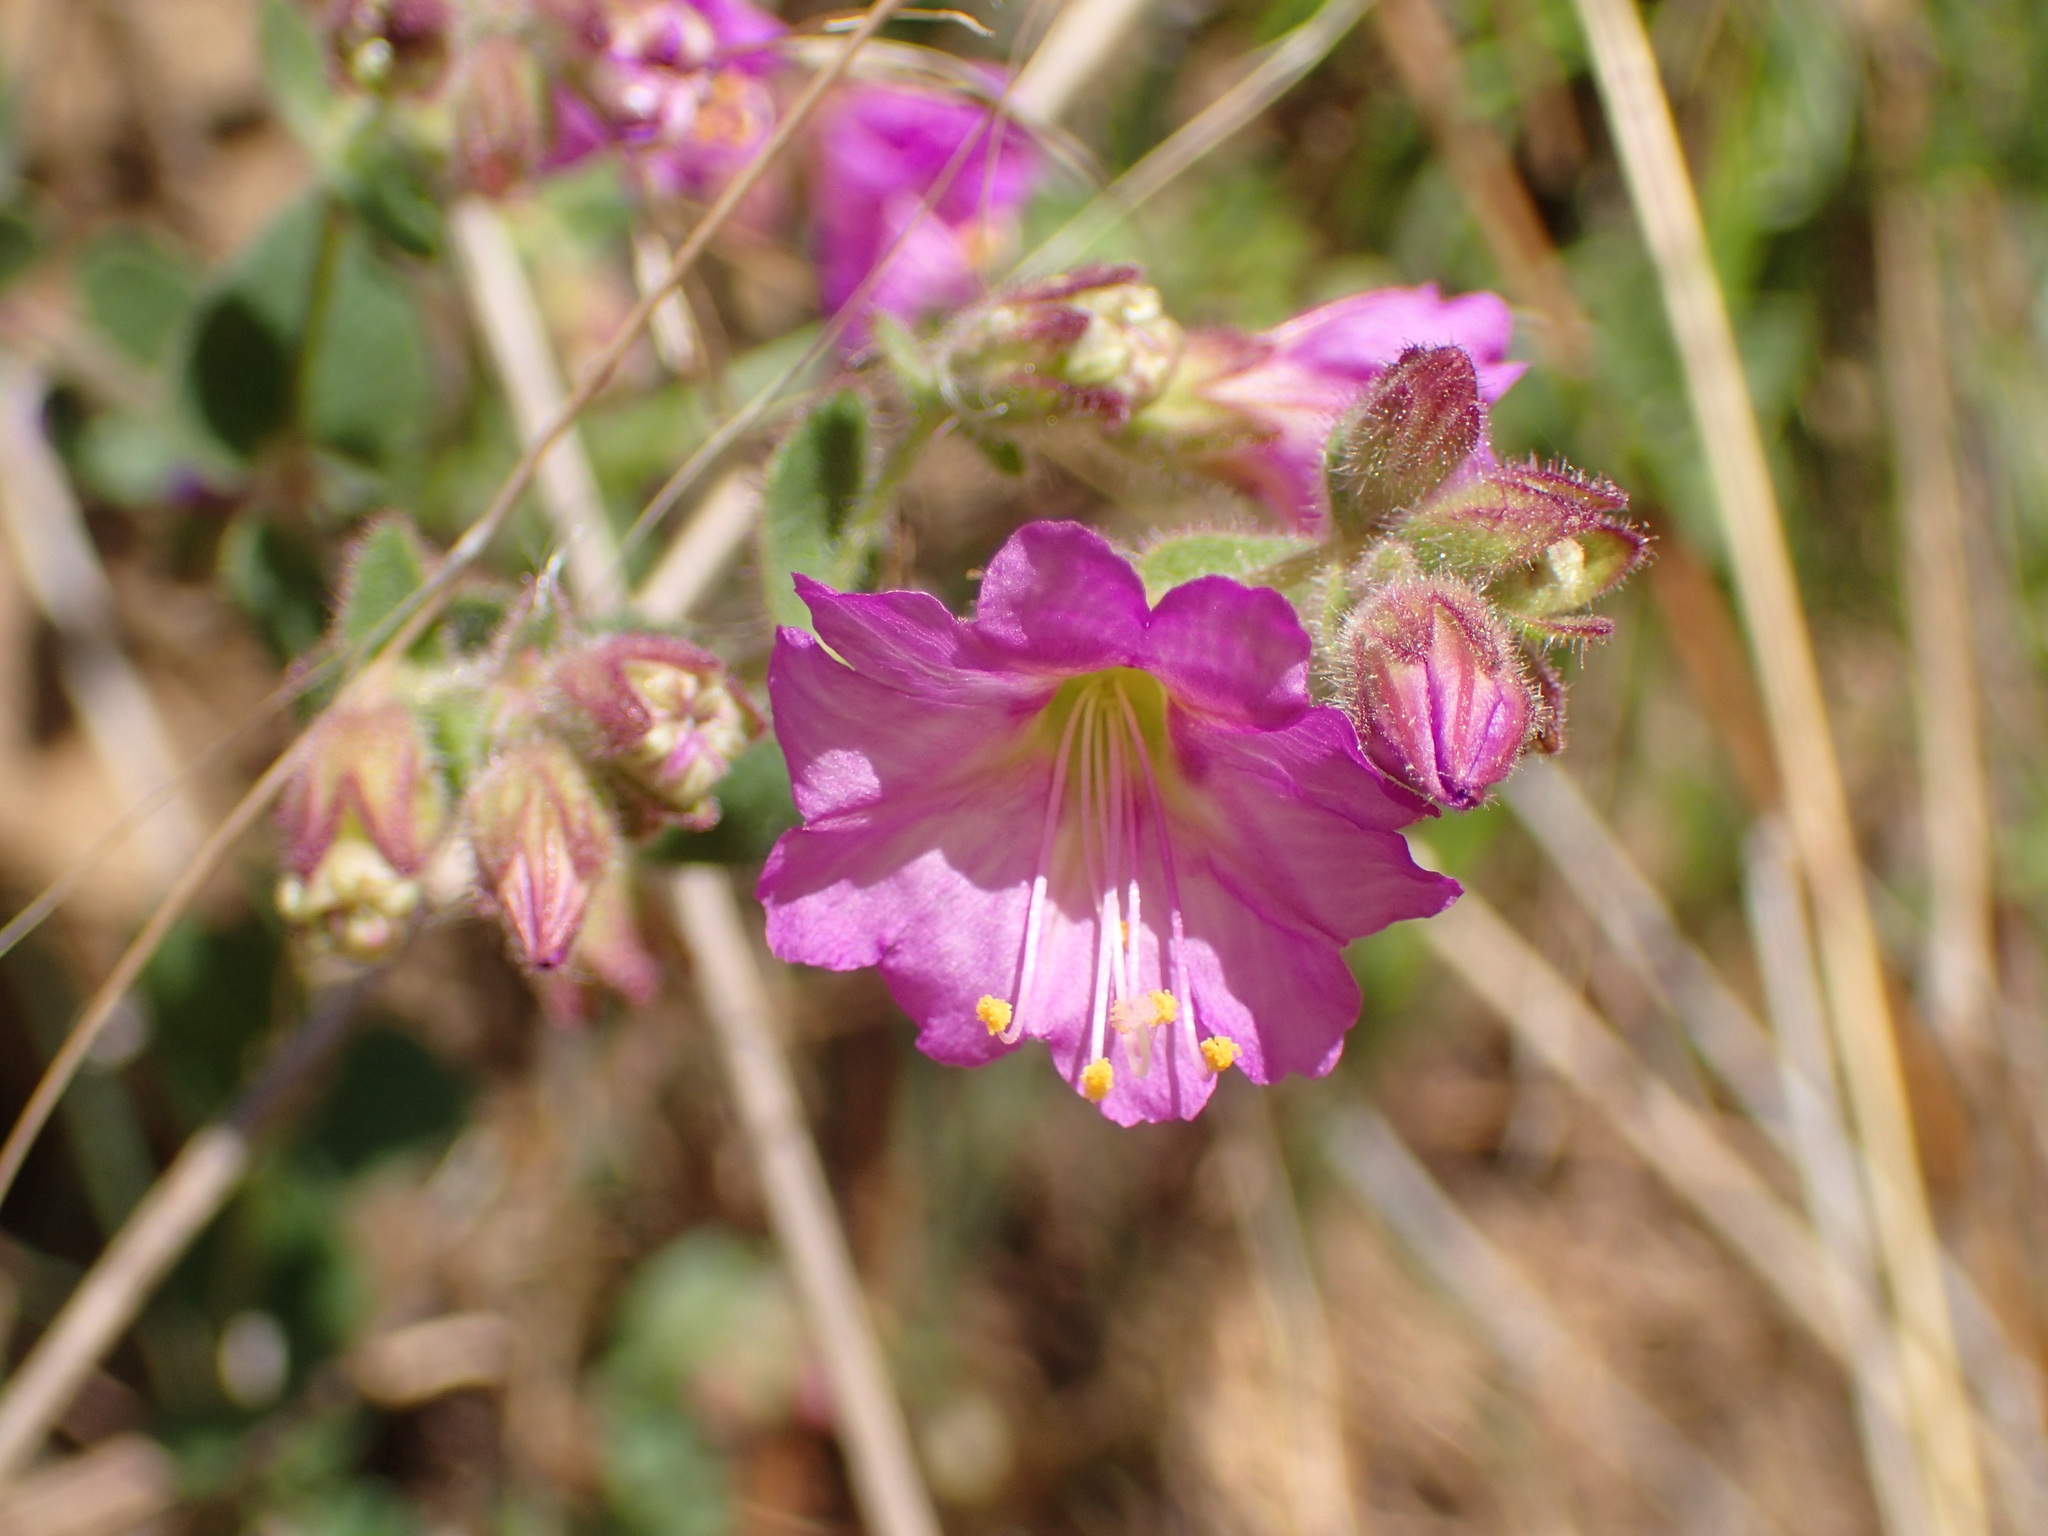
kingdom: Plantae
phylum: Tracheophyta
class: Magnoliopsida
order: Caryophyllales
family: Nyctaginaceae
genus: Mirabilis
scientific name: Mirabilis laevis
